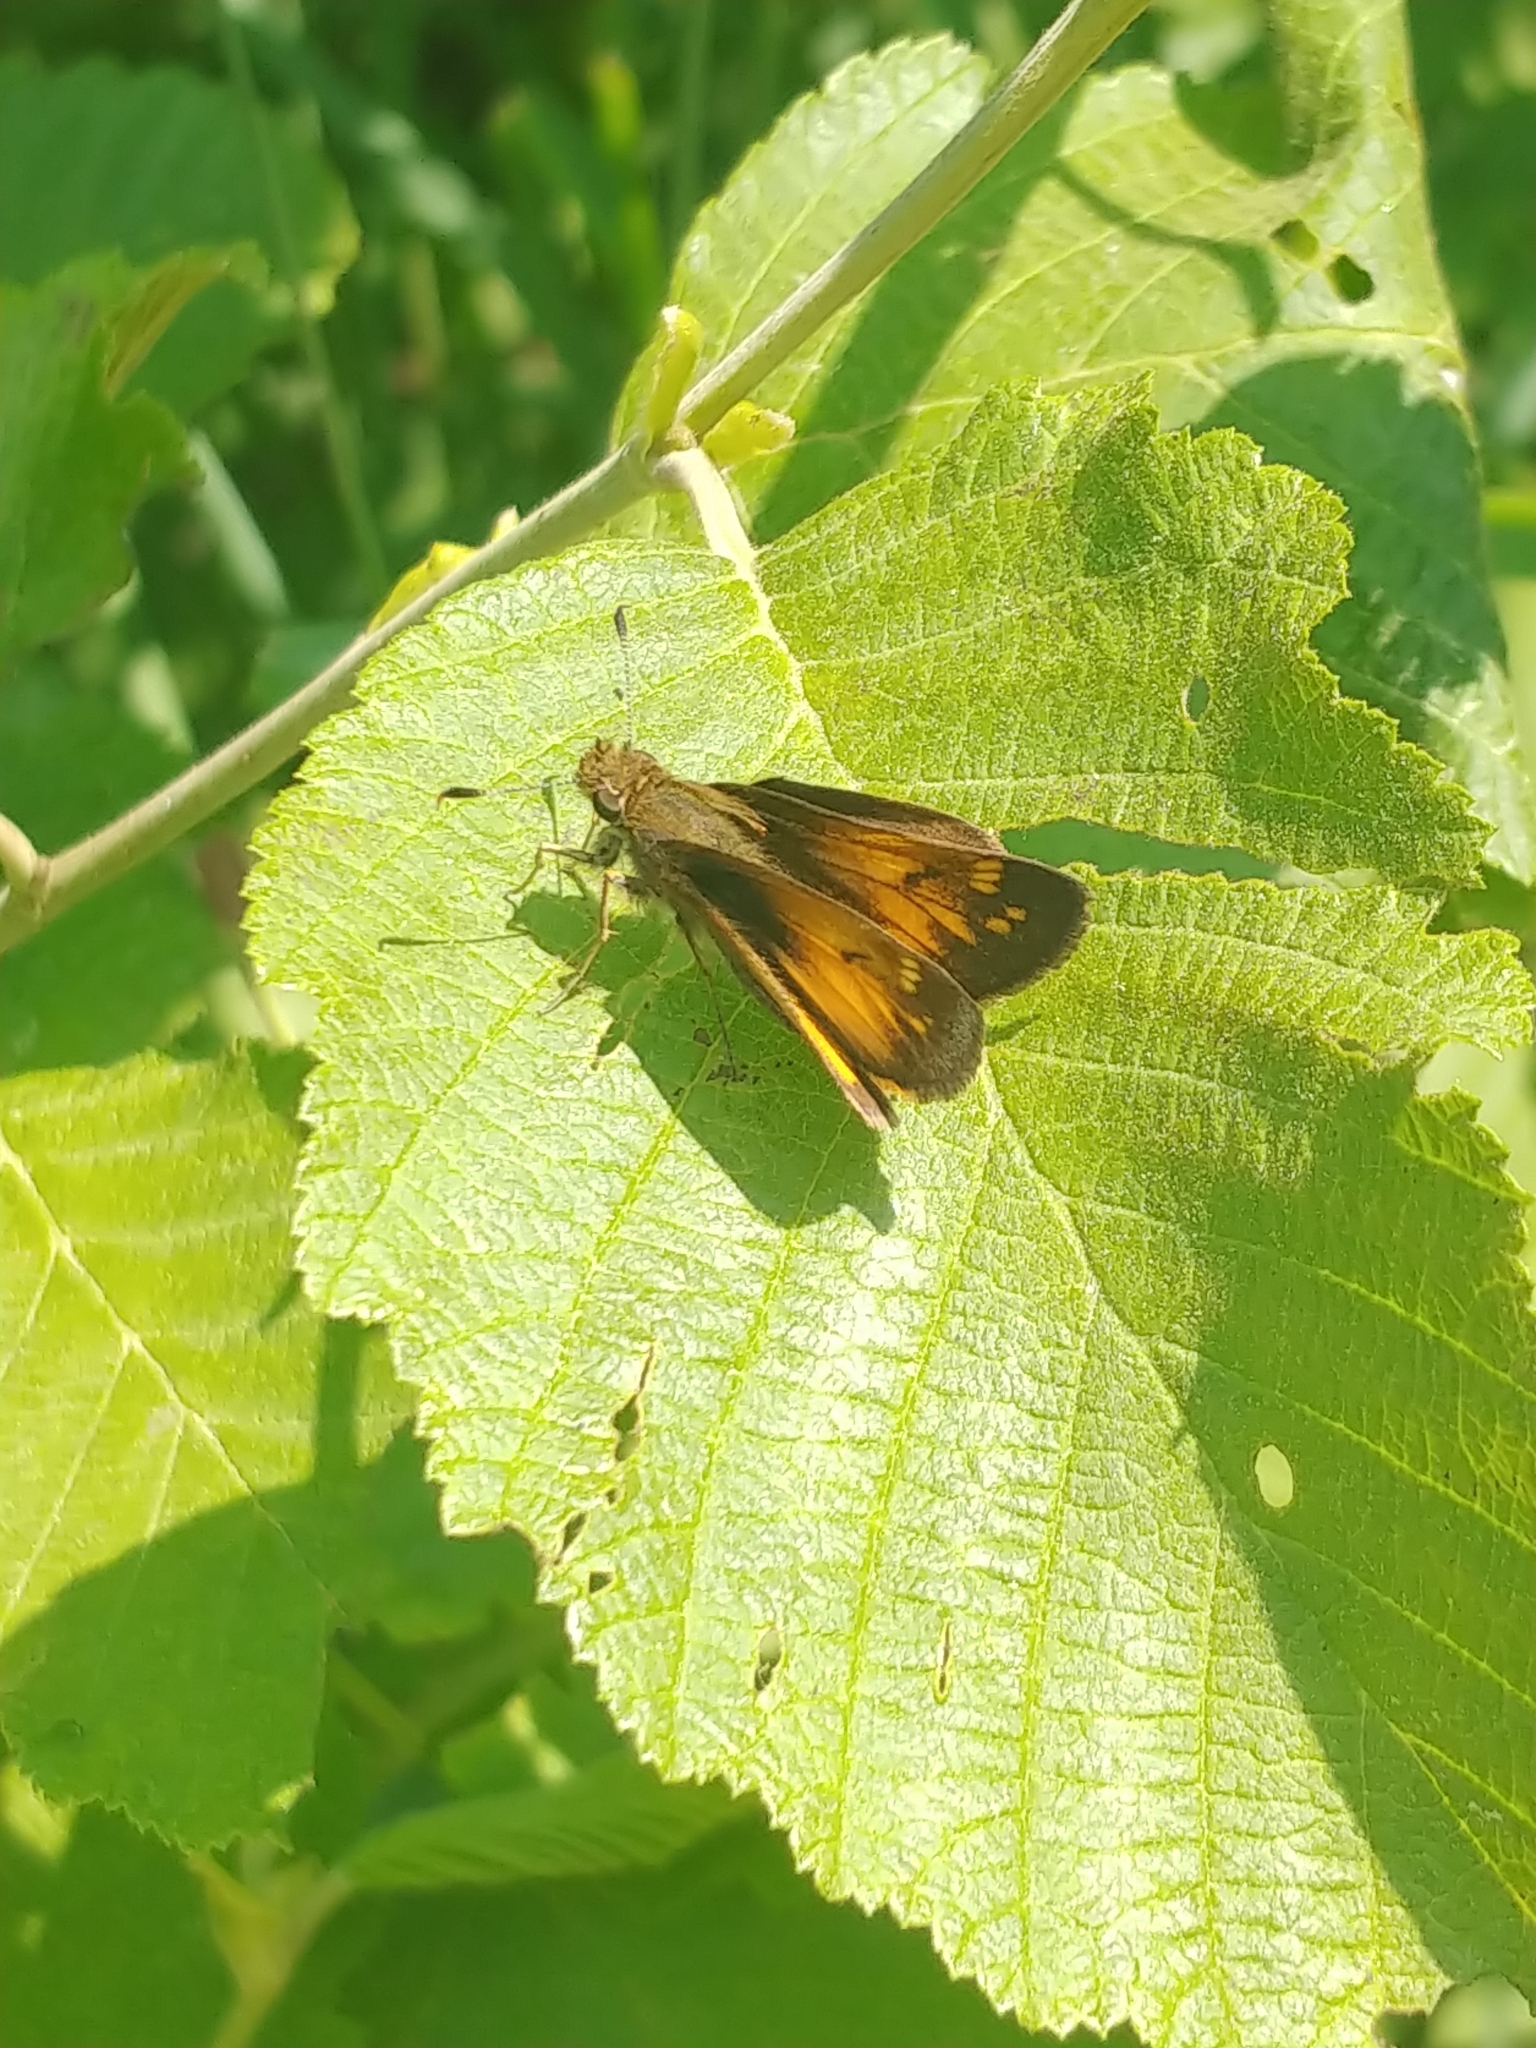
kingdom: Animalia
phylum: Arthropoda
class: Insecta
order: Lepidoptera
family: Hesperiidae
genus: Lon
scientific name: Lon hobomok
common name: Hobomok skipper
